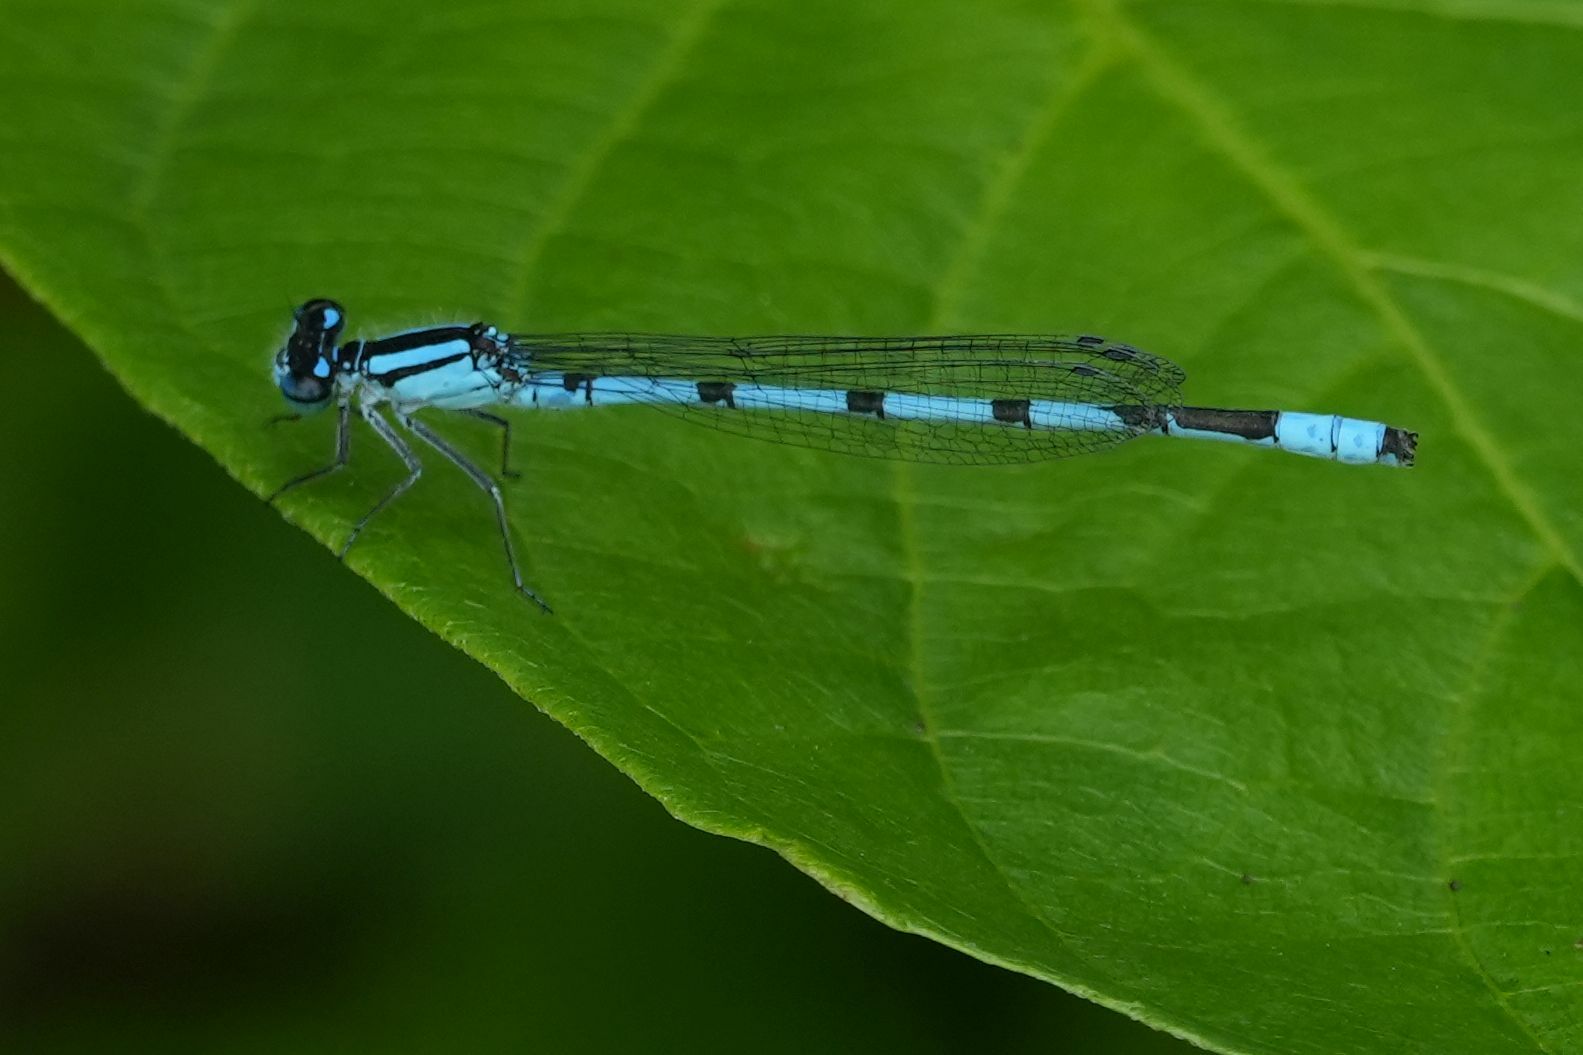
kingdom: Animalia
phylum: Arthropoda
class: Insecta
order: Odonata
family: Coenagrionidae
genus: Enallagma
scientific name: Enallagma ebrium
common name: Marsh bluet
